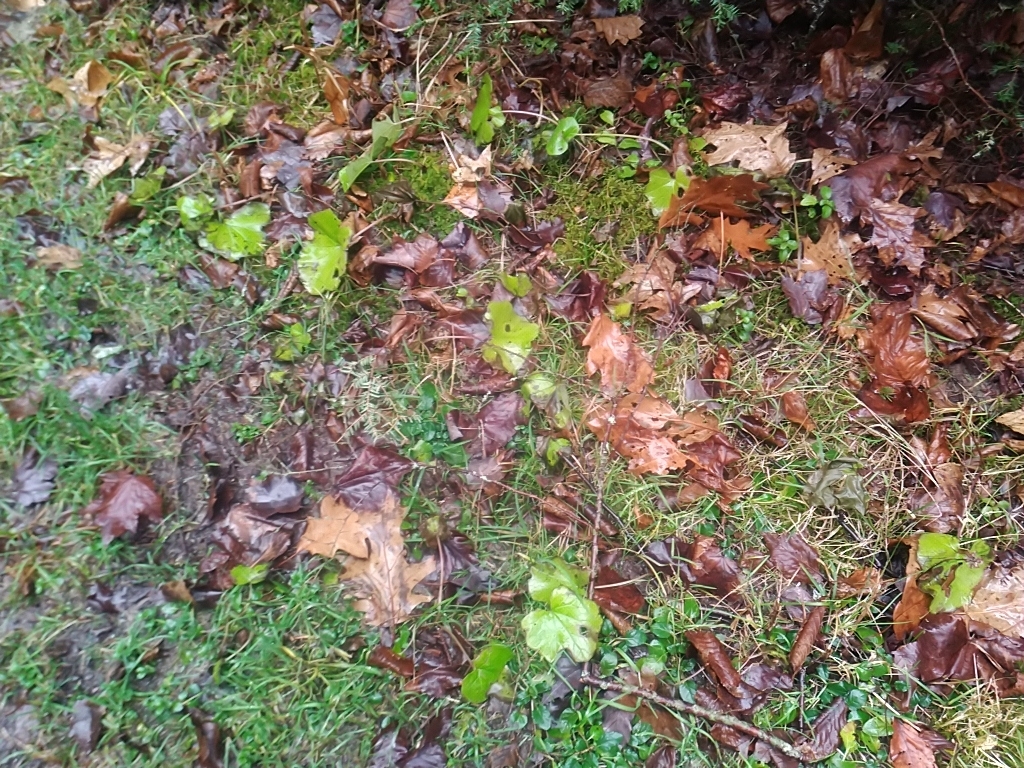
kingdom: Plantae
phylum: Tracheophyta
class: Magnoliopsida
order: Asterales
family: Asteraceae
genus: Tussilago
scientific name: Tussilago farfara
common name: Coltsfoot
